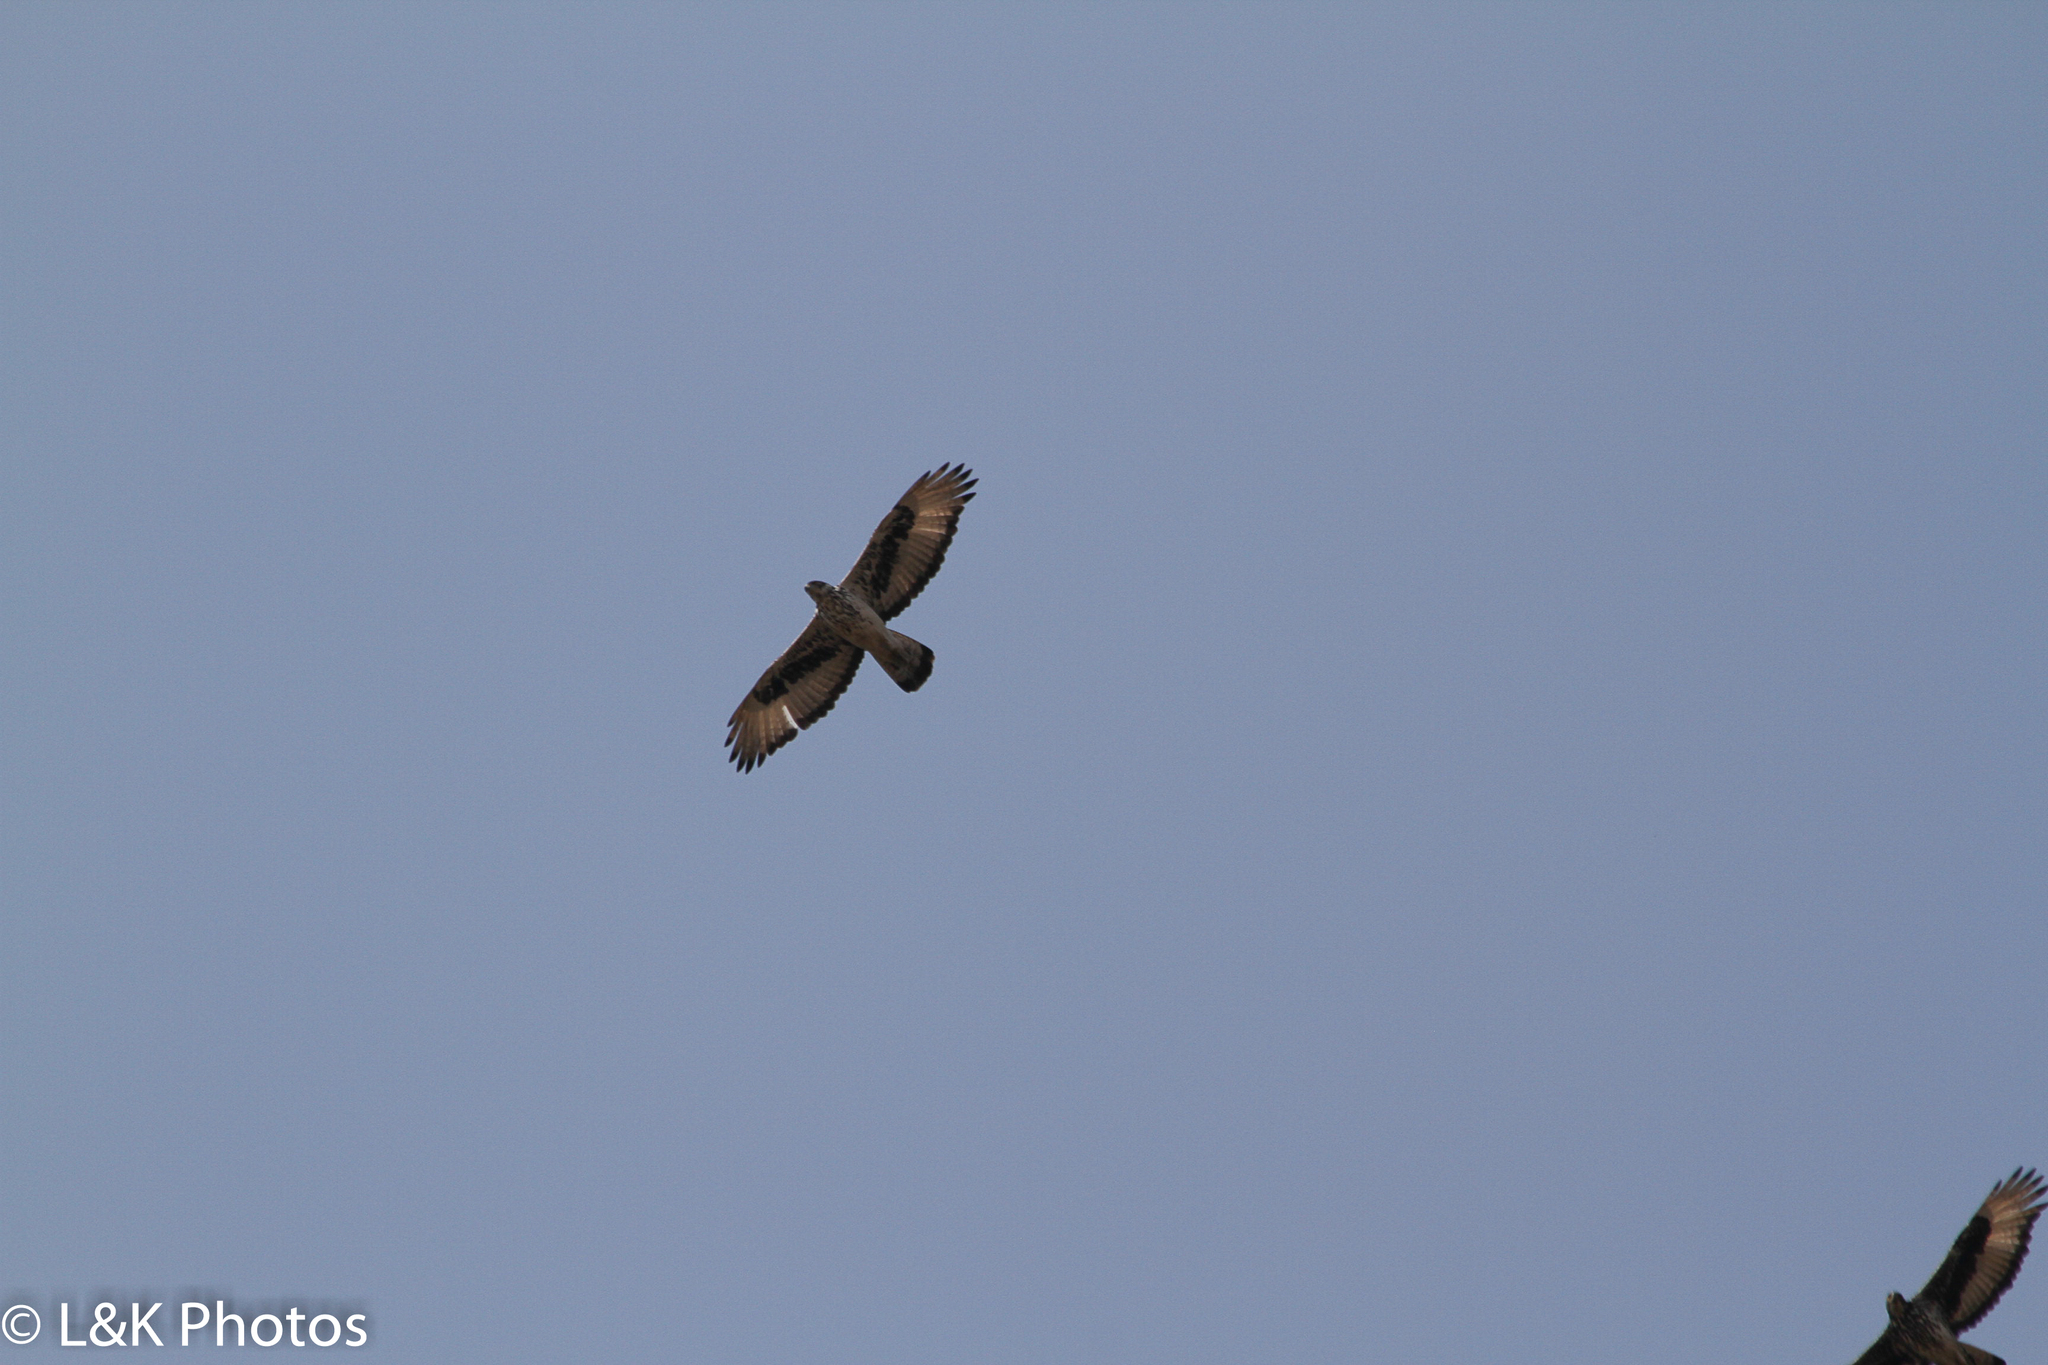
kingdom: Animalia
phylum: Chordata
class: Aves
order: Accipitriformes
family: Accipitridae
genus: Aquila
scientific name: Aquila spilogaster
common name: African hawk-eagle
